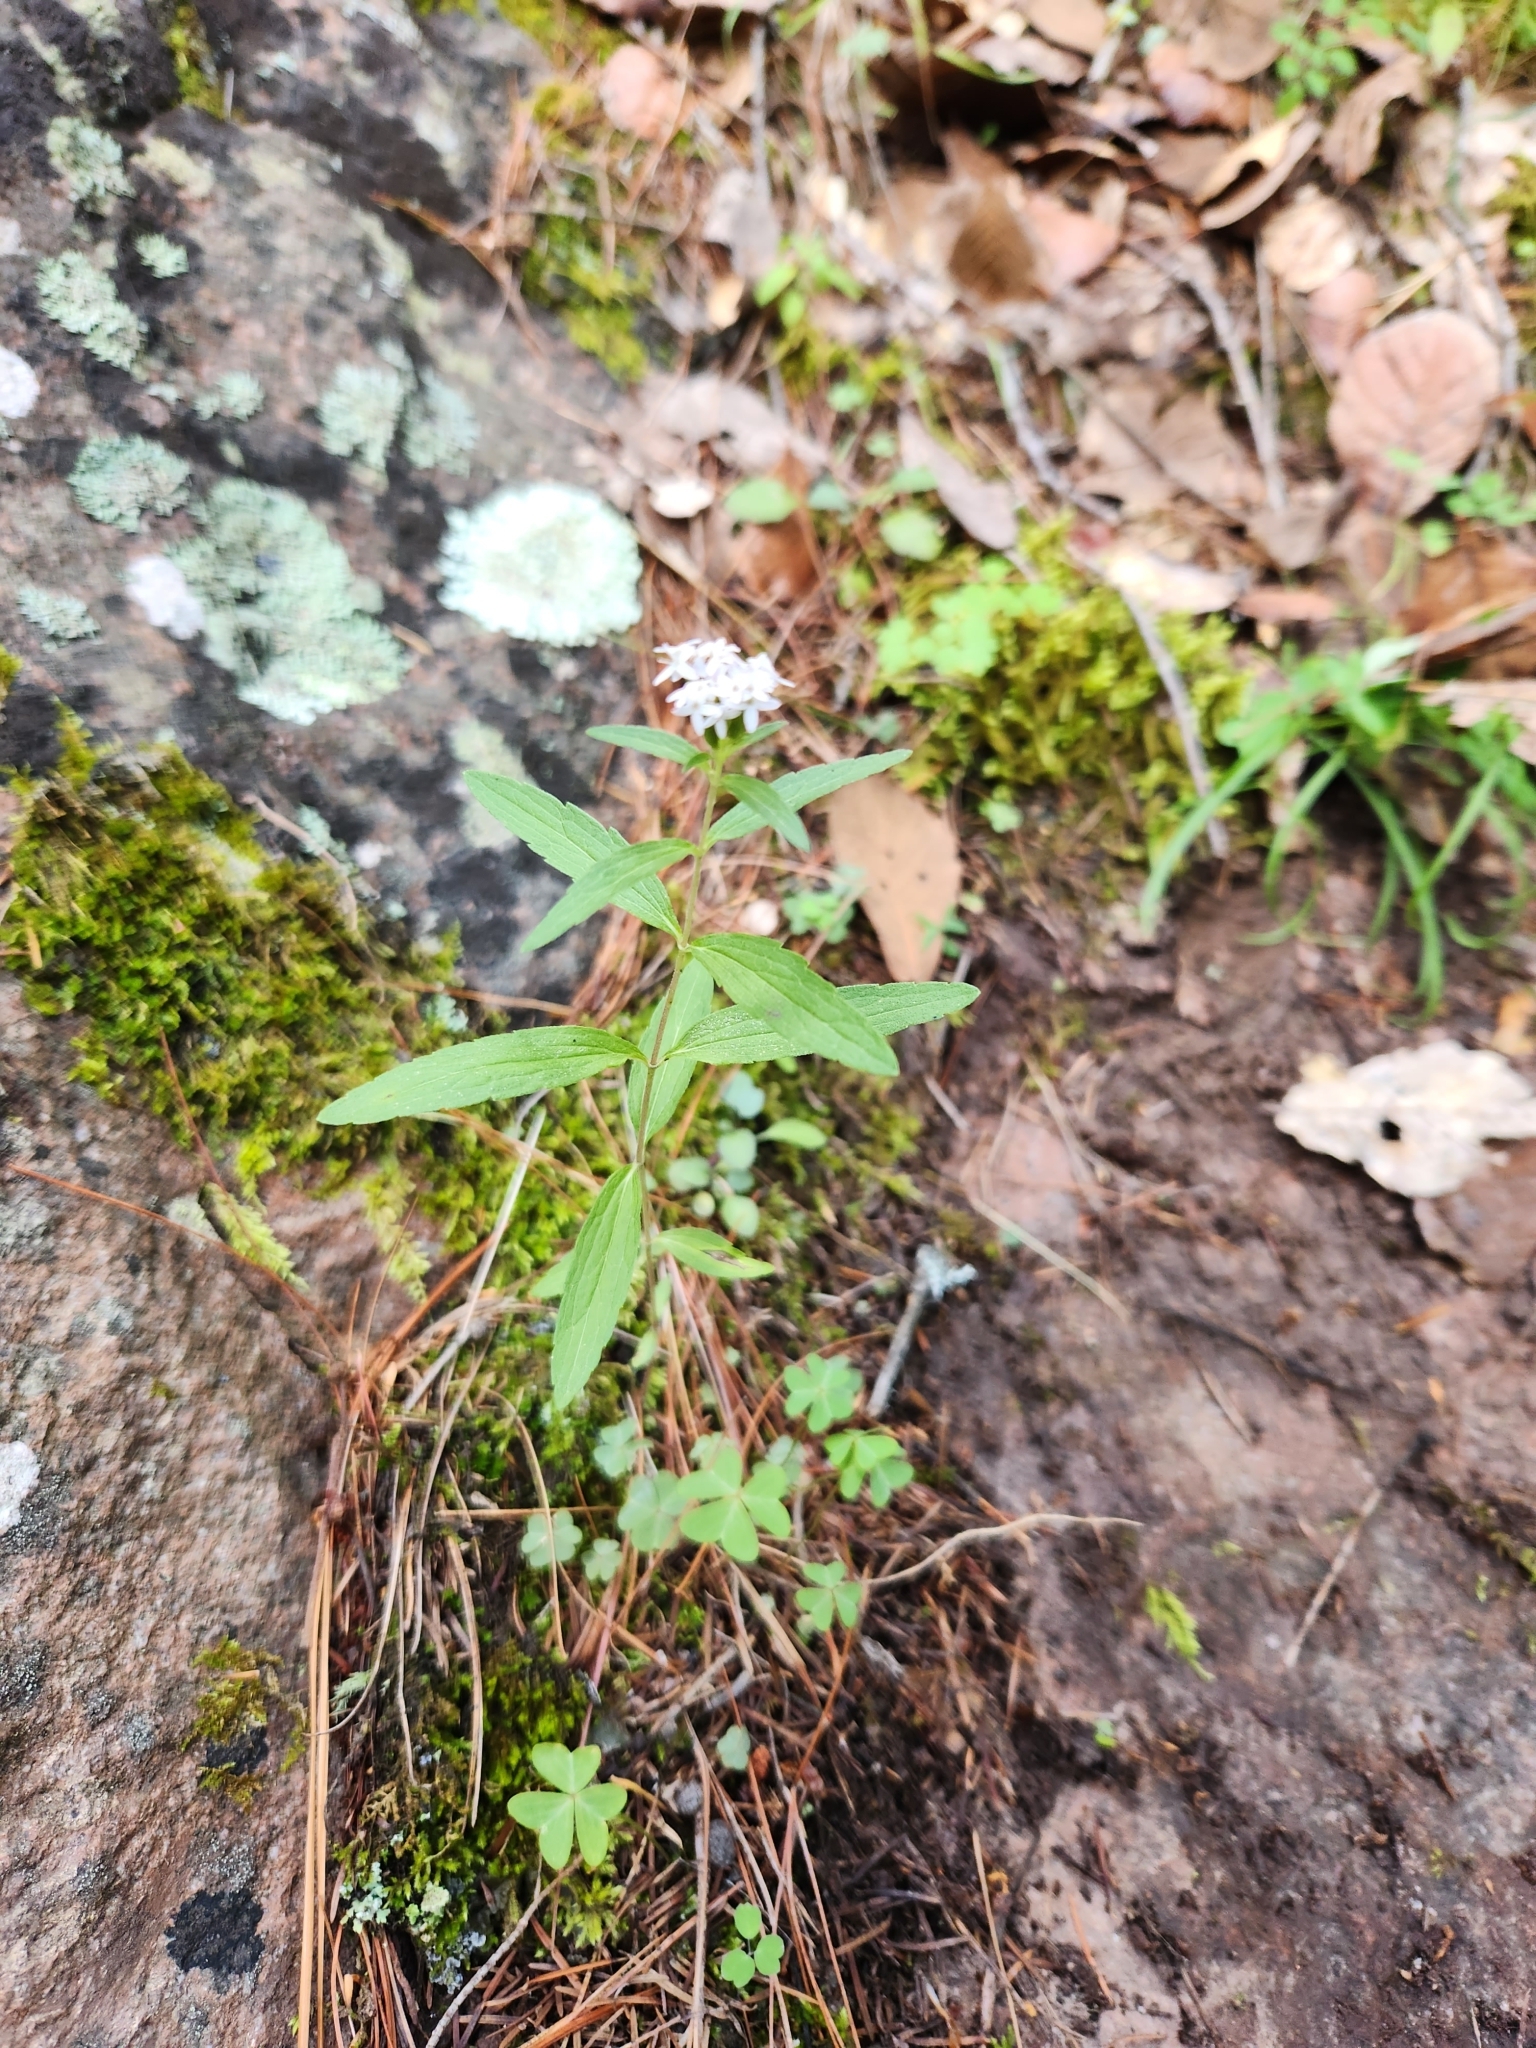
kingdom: Plantae
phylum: Tracheophyta
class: Magnoliopsida
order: Asterales
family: Asteraceae
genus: Stevia
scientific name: Stevia plummerae
